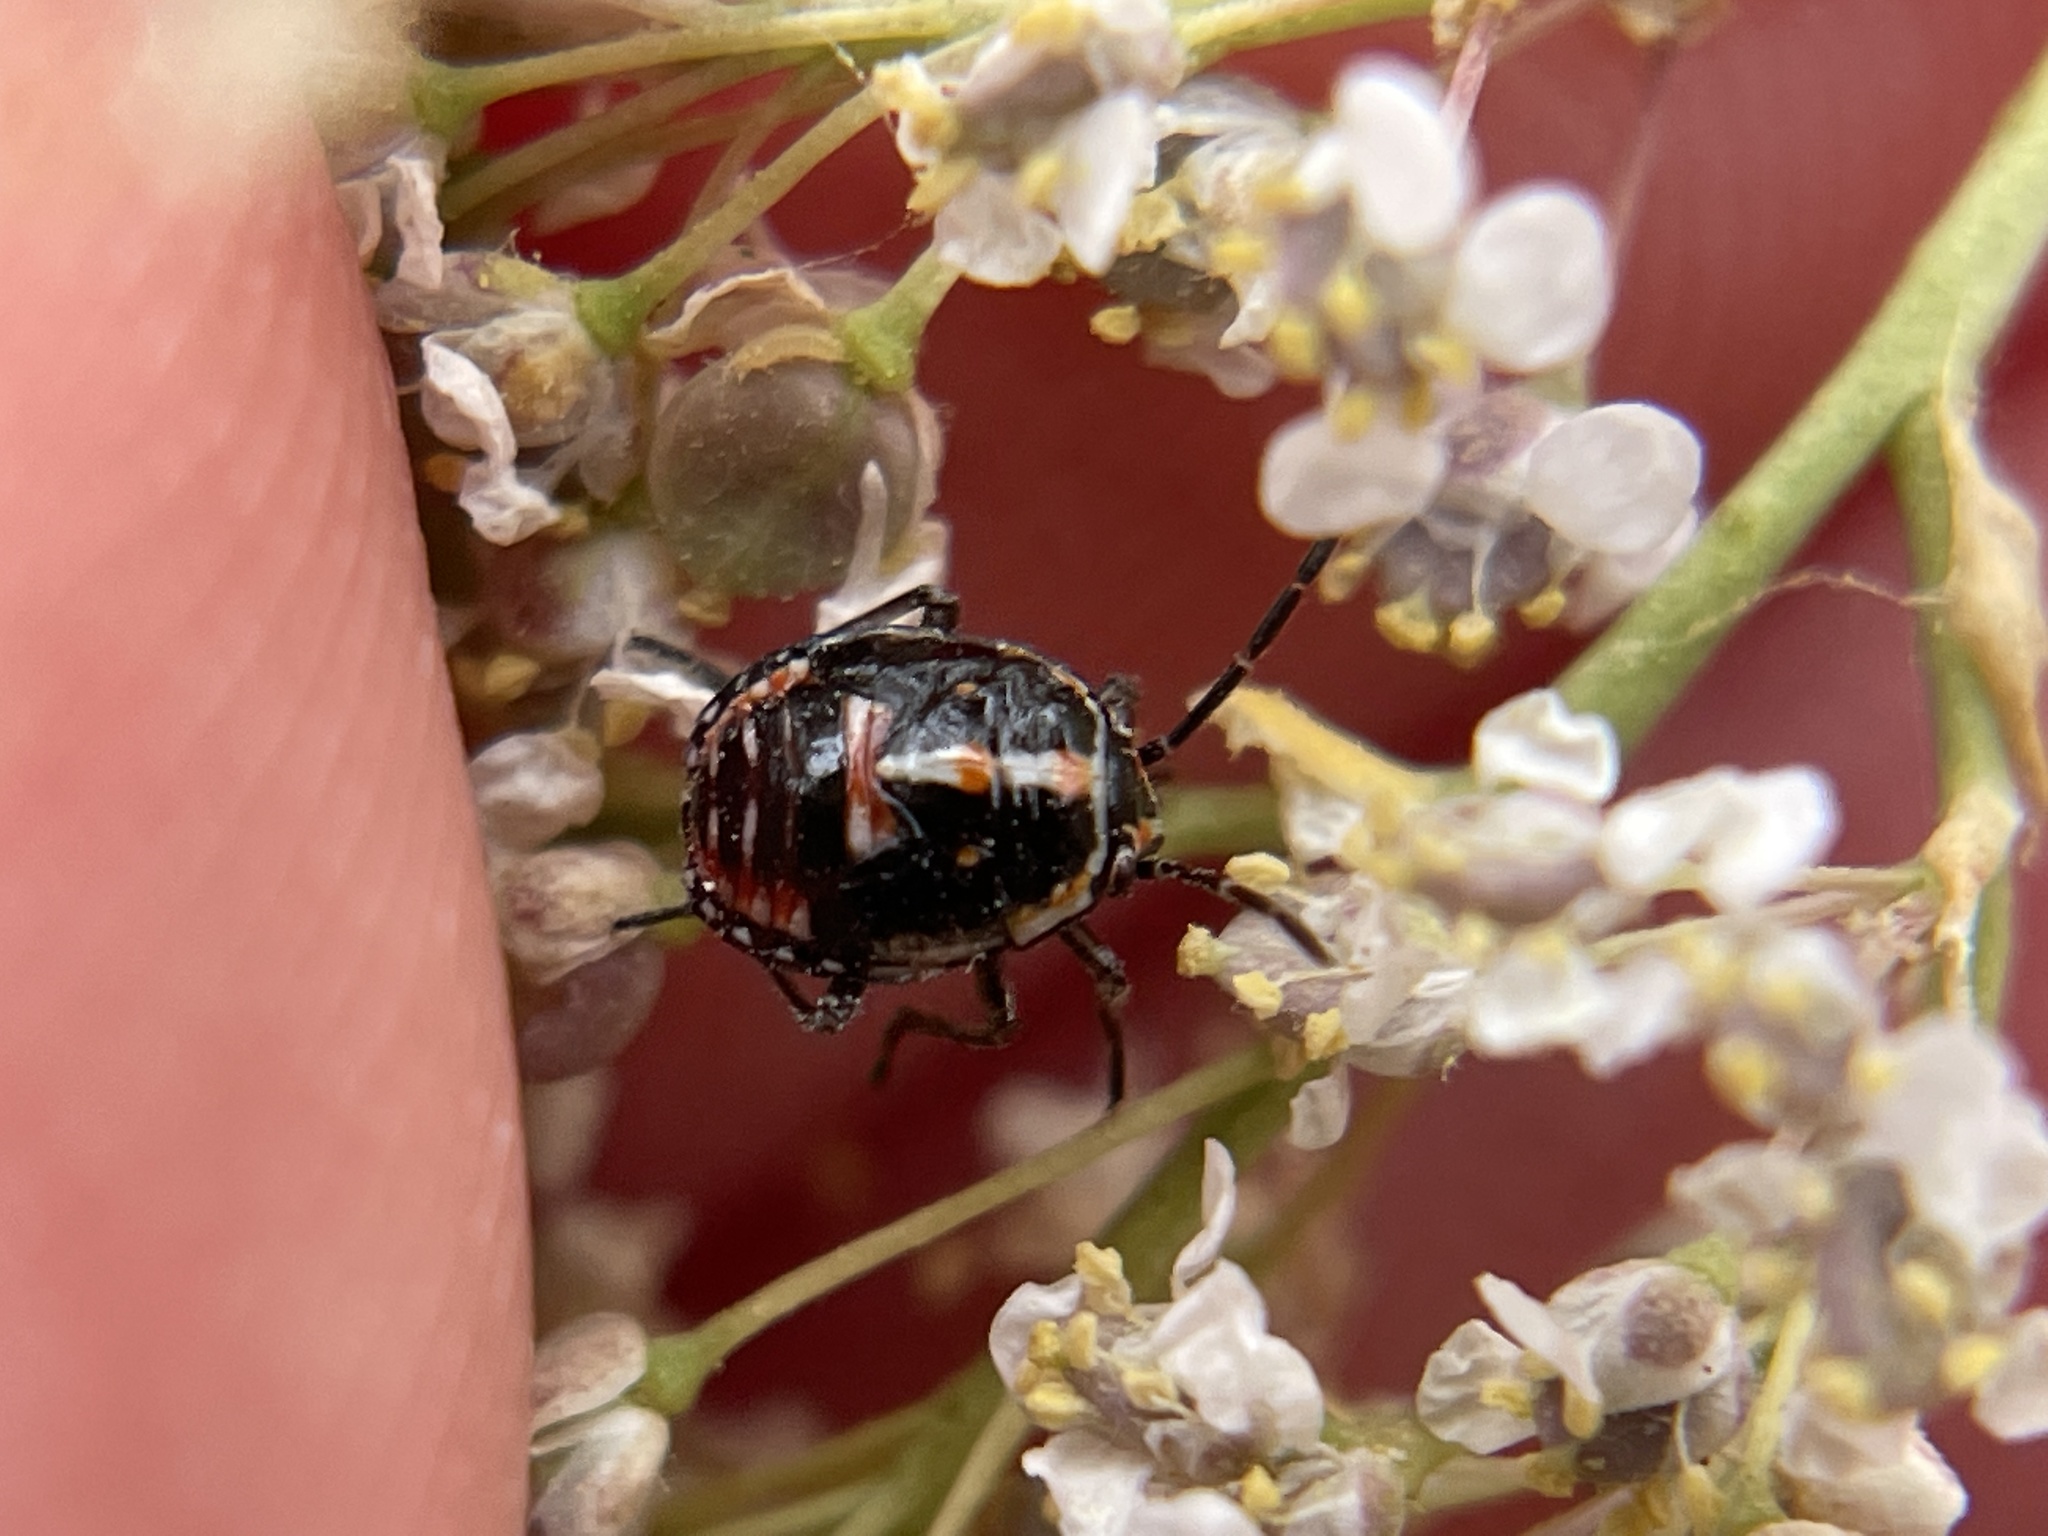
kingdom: Animalia
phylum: Arthropoda
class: Insecta
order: Hemiptera
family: Pentatomidae
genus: Bagrada
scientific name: Bagrada hilaris
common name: Bagrada bug
